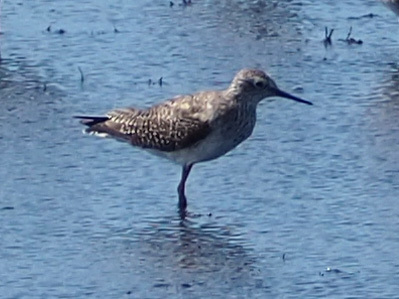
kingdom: Animalia
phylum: Chordata
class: Aves
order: Charadriiformes
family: Scolopacidae
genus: Tringa
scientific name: Tringa flavipes
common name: Lesser yellowlegs
